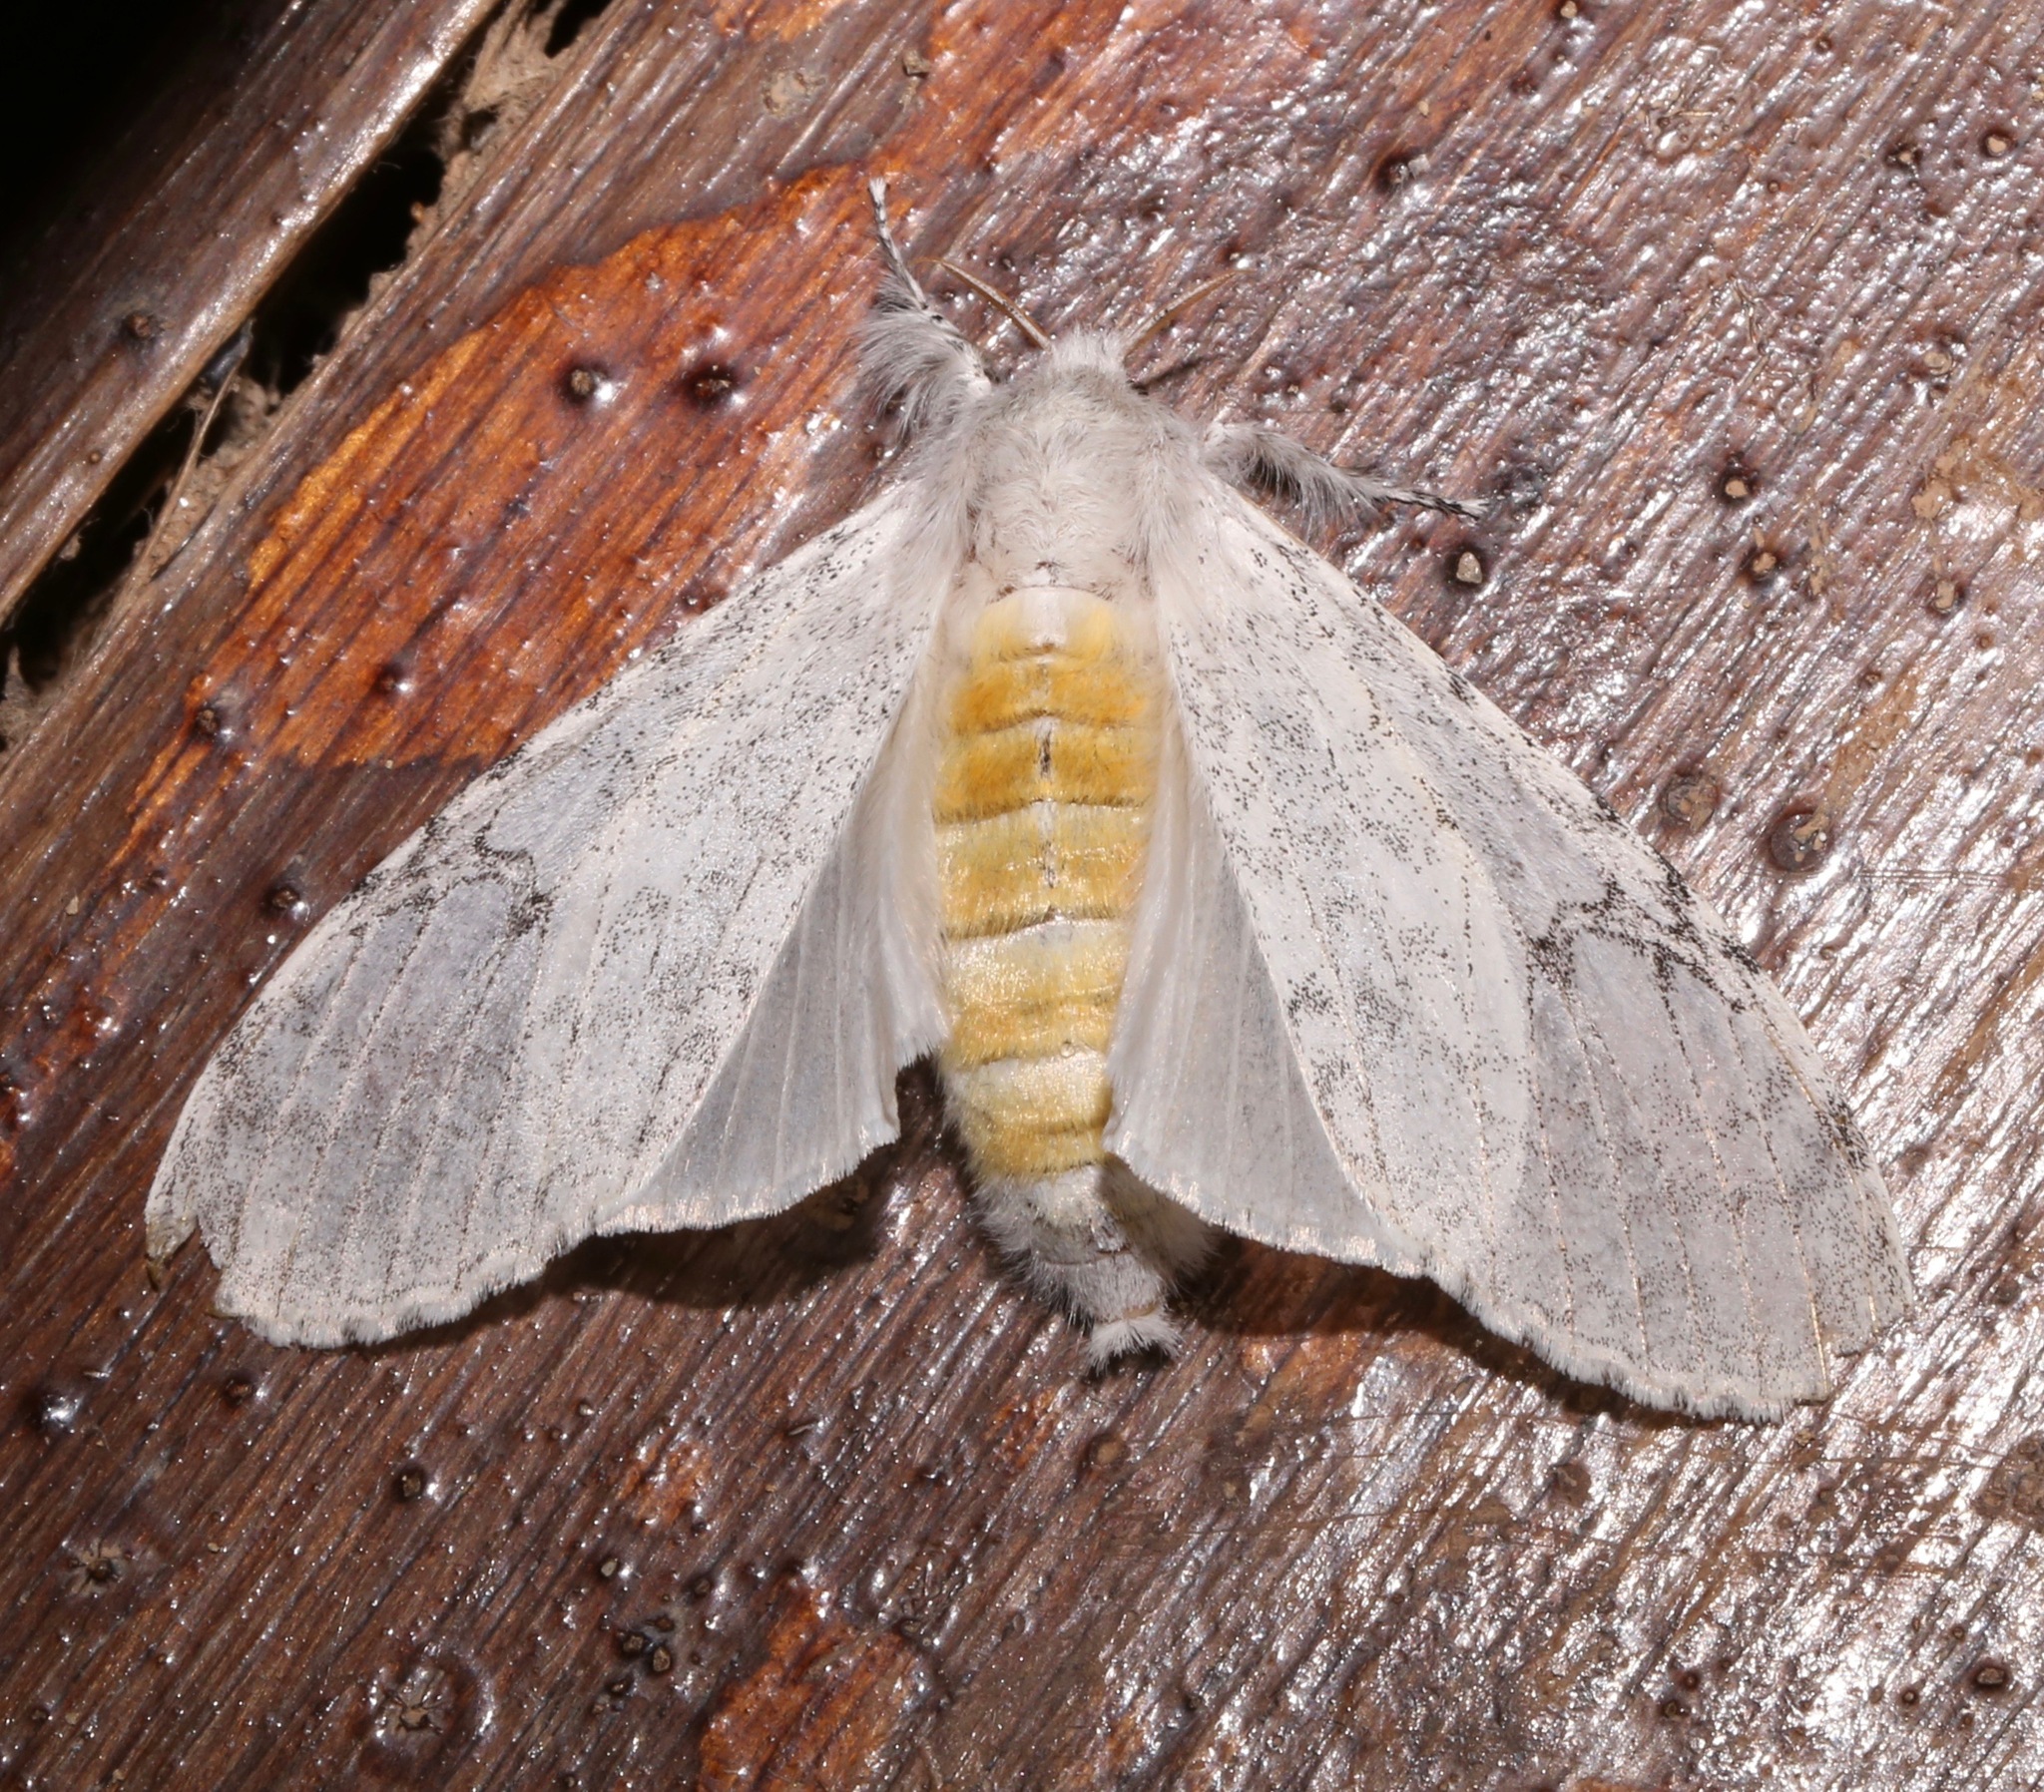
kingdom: Animalia
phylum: Arthropoda
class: Insecta
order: Lepidoptera
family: Erebidae
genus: Dasychira
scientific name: Dasychira georgiana
